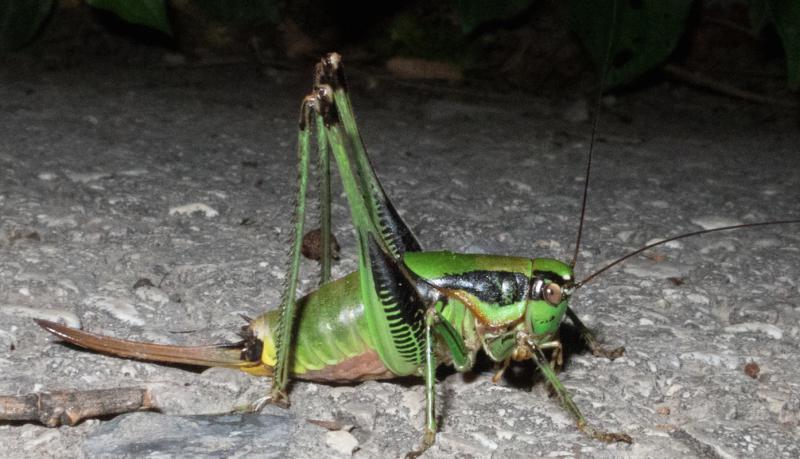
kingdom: Animalia
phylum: Arthropoda
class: Insecta
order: Orthoptera
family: Tettigoniidae
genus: Eupholidoptera
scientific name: Eupholidoptera schmidti
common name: Schmidt's marbled bush-cricket
